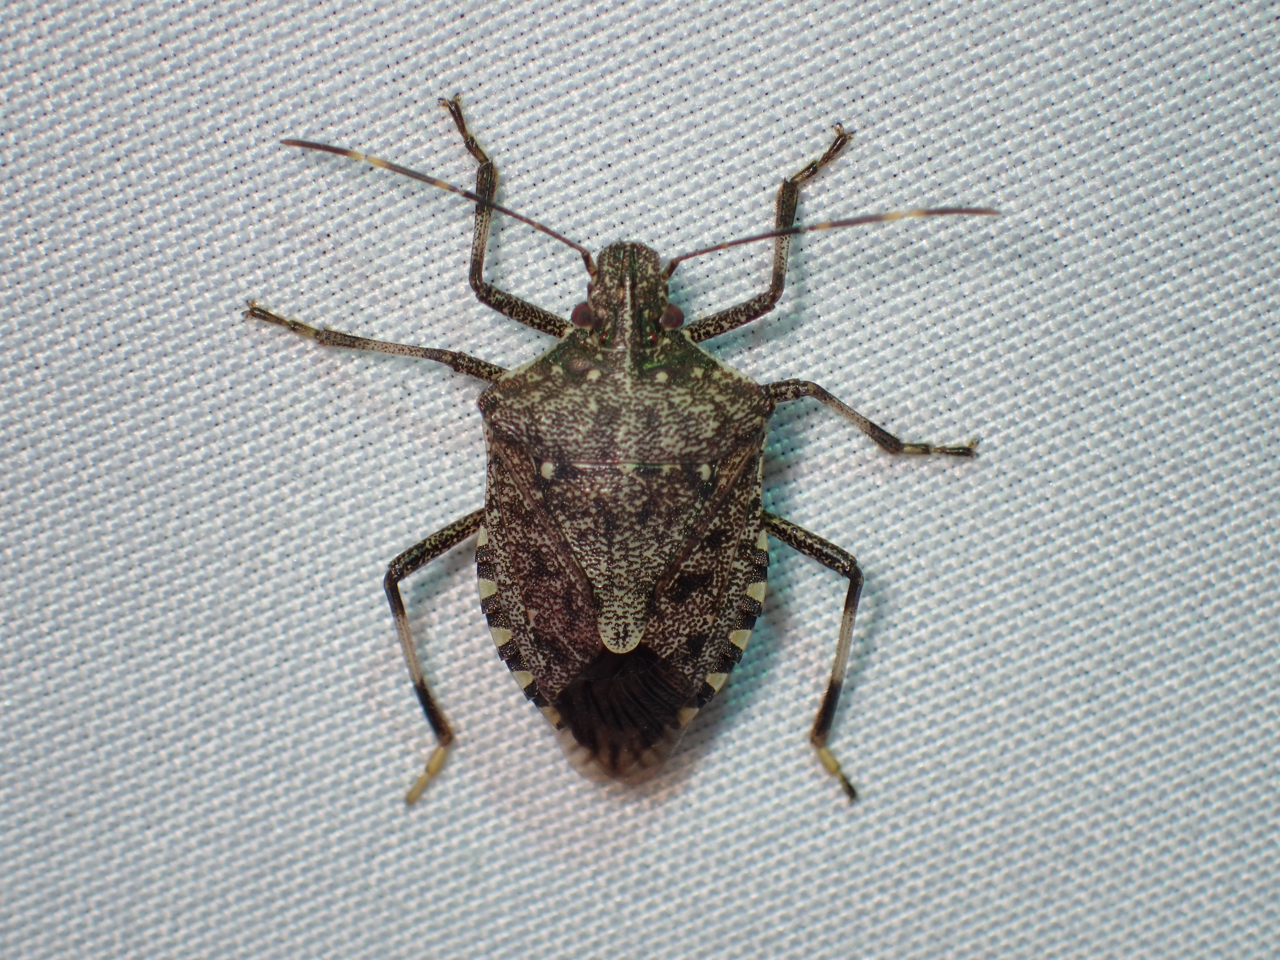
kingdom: Animalia
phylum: Arthropoda
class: Insecta
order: Hemiptera
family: Pentatomidae
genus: Halyomorpha
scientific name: Halyomorpha halys
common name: Brown marmorated stink bug
